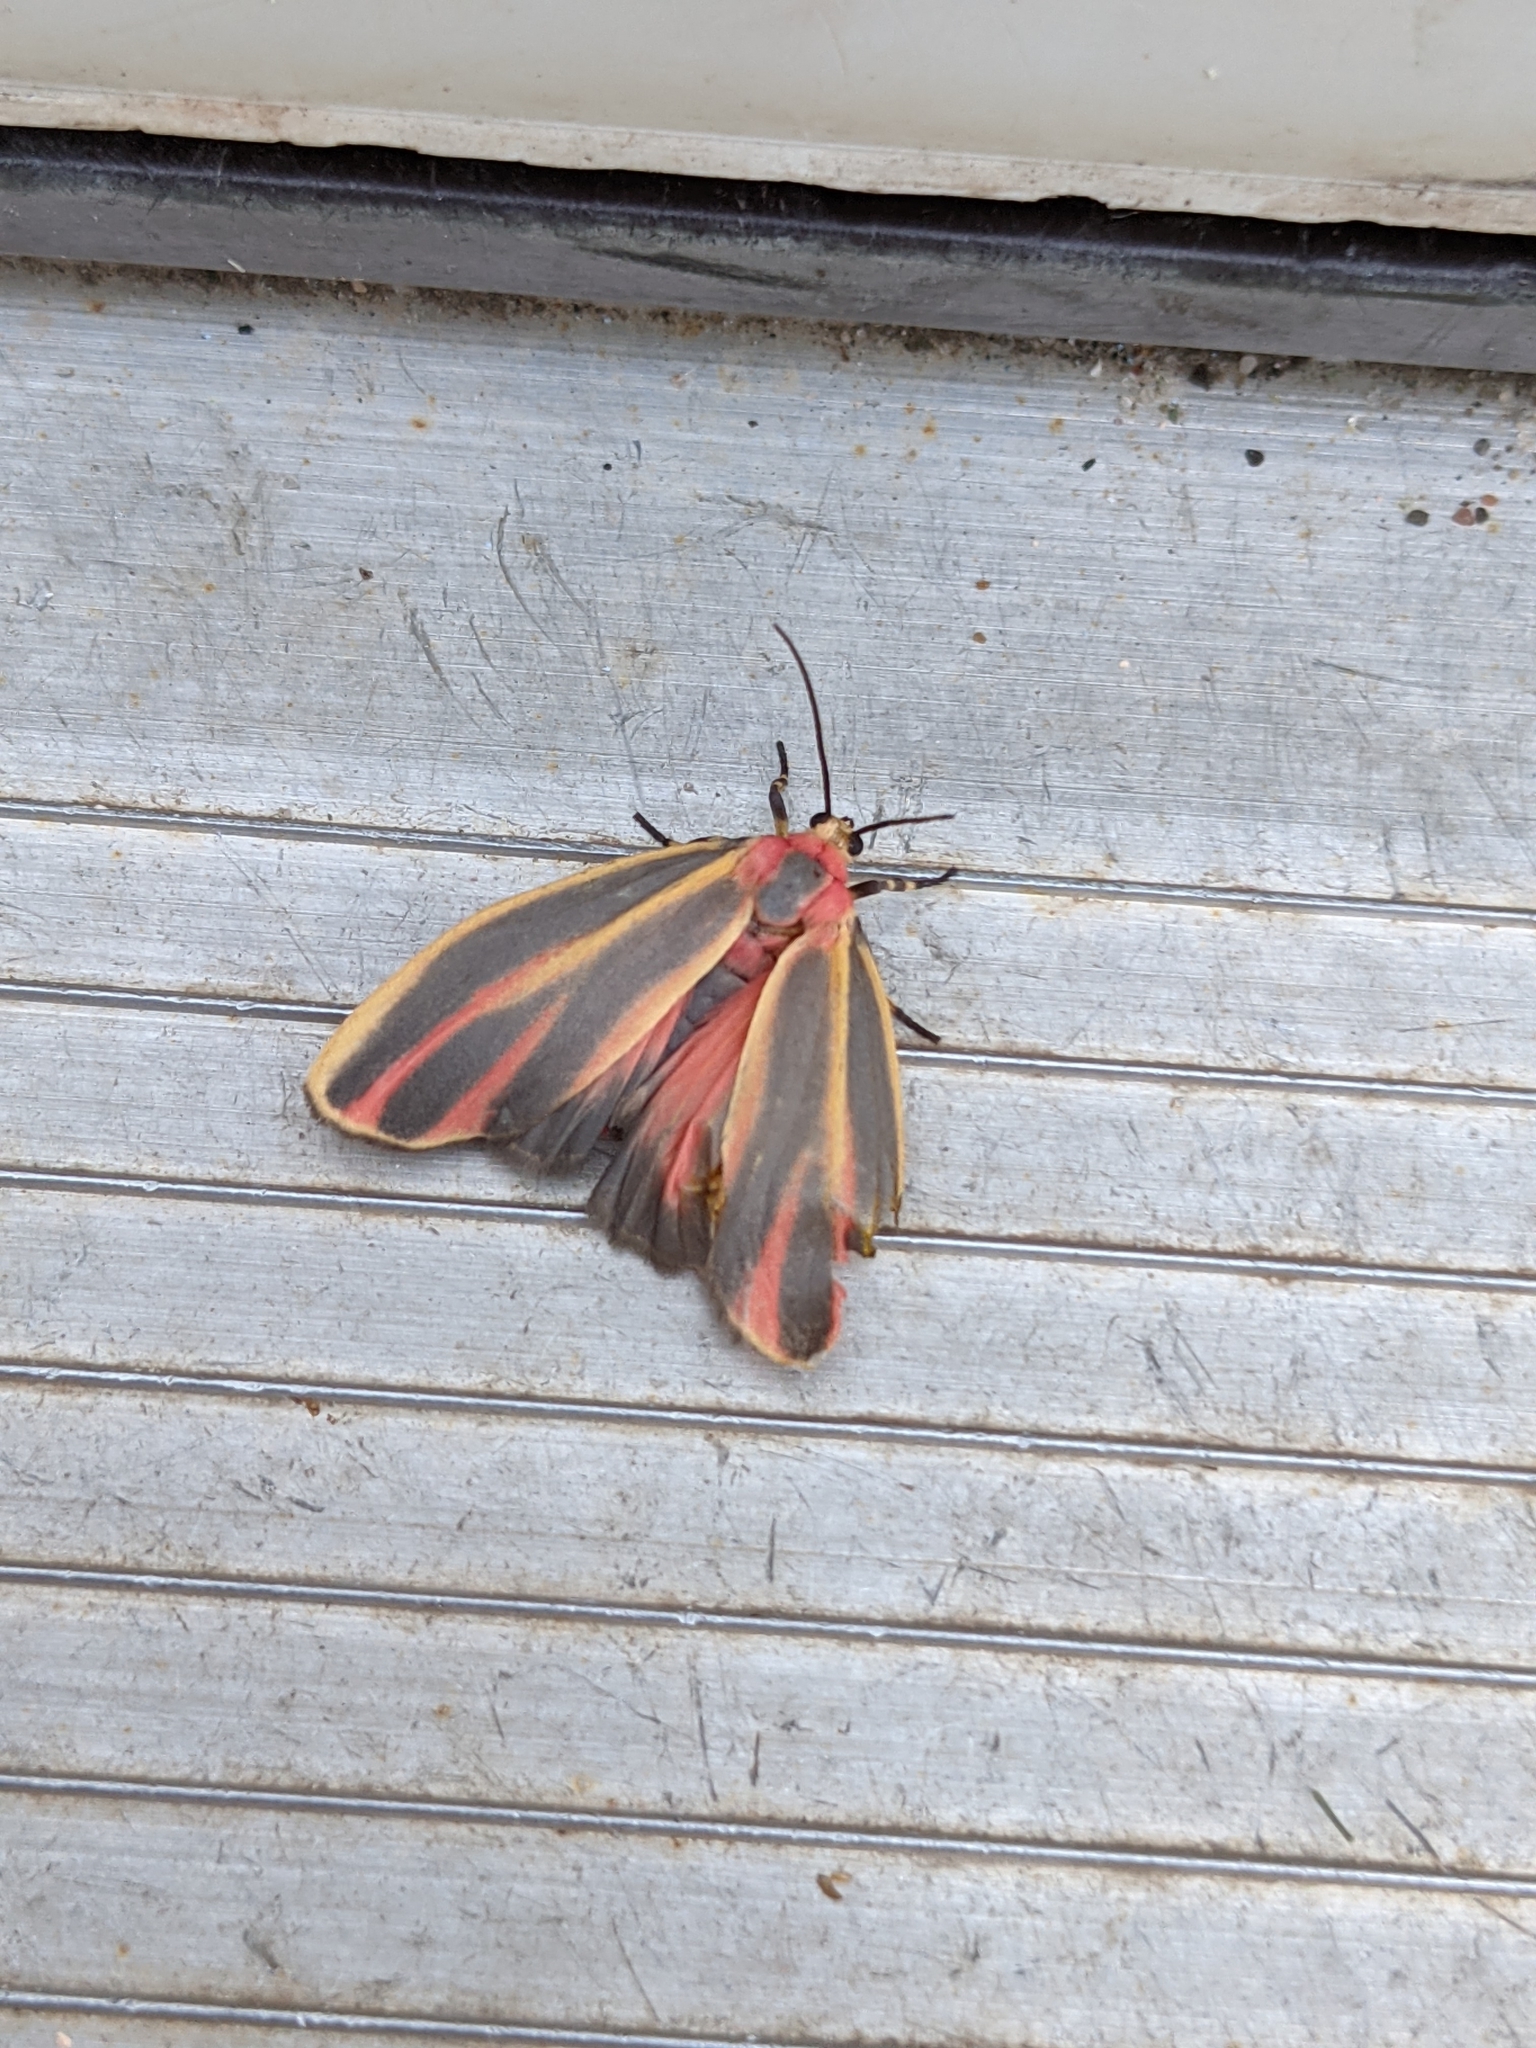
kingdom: Animalia
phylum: Arthropoda
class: Insecta
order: Lepidoptera
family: Erebidae
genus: Hypoprepia
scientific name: Hypoprepia fucosa
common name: Painted lichen moth
